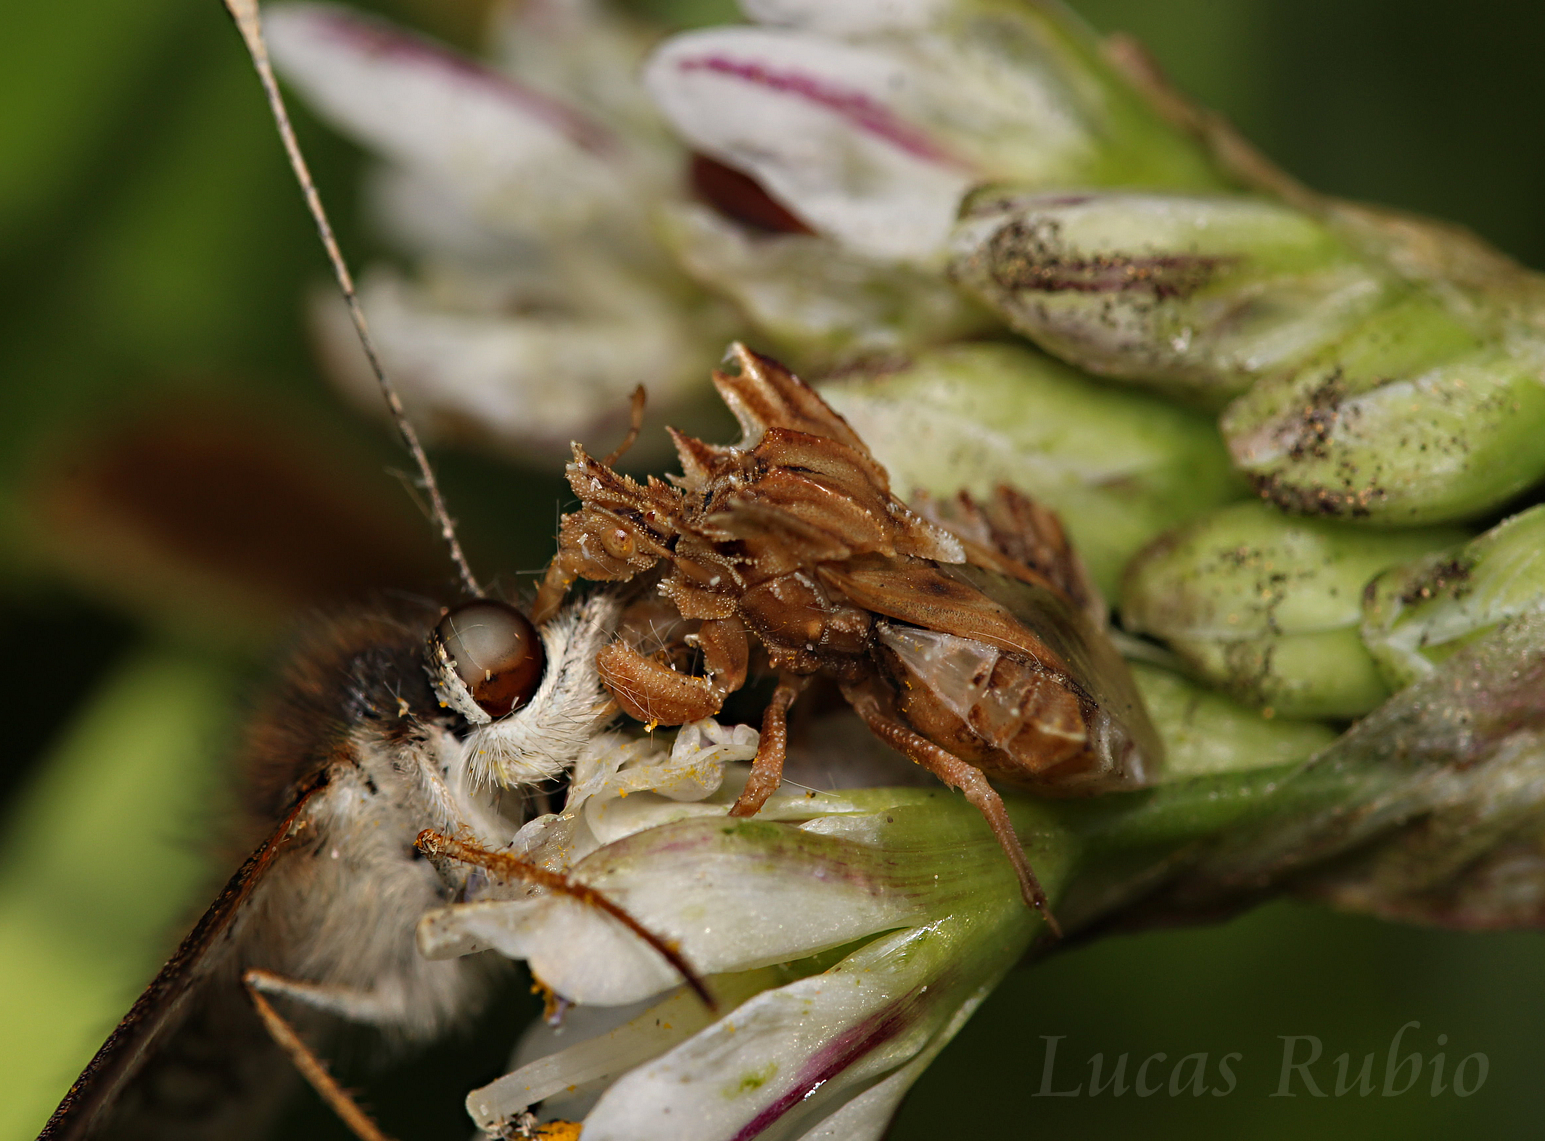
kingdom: Animalia
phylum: Arthropoda
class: Insecta
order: Hemiptera
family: Reduviidae
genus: Phymata
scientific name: Phymata fortificata
